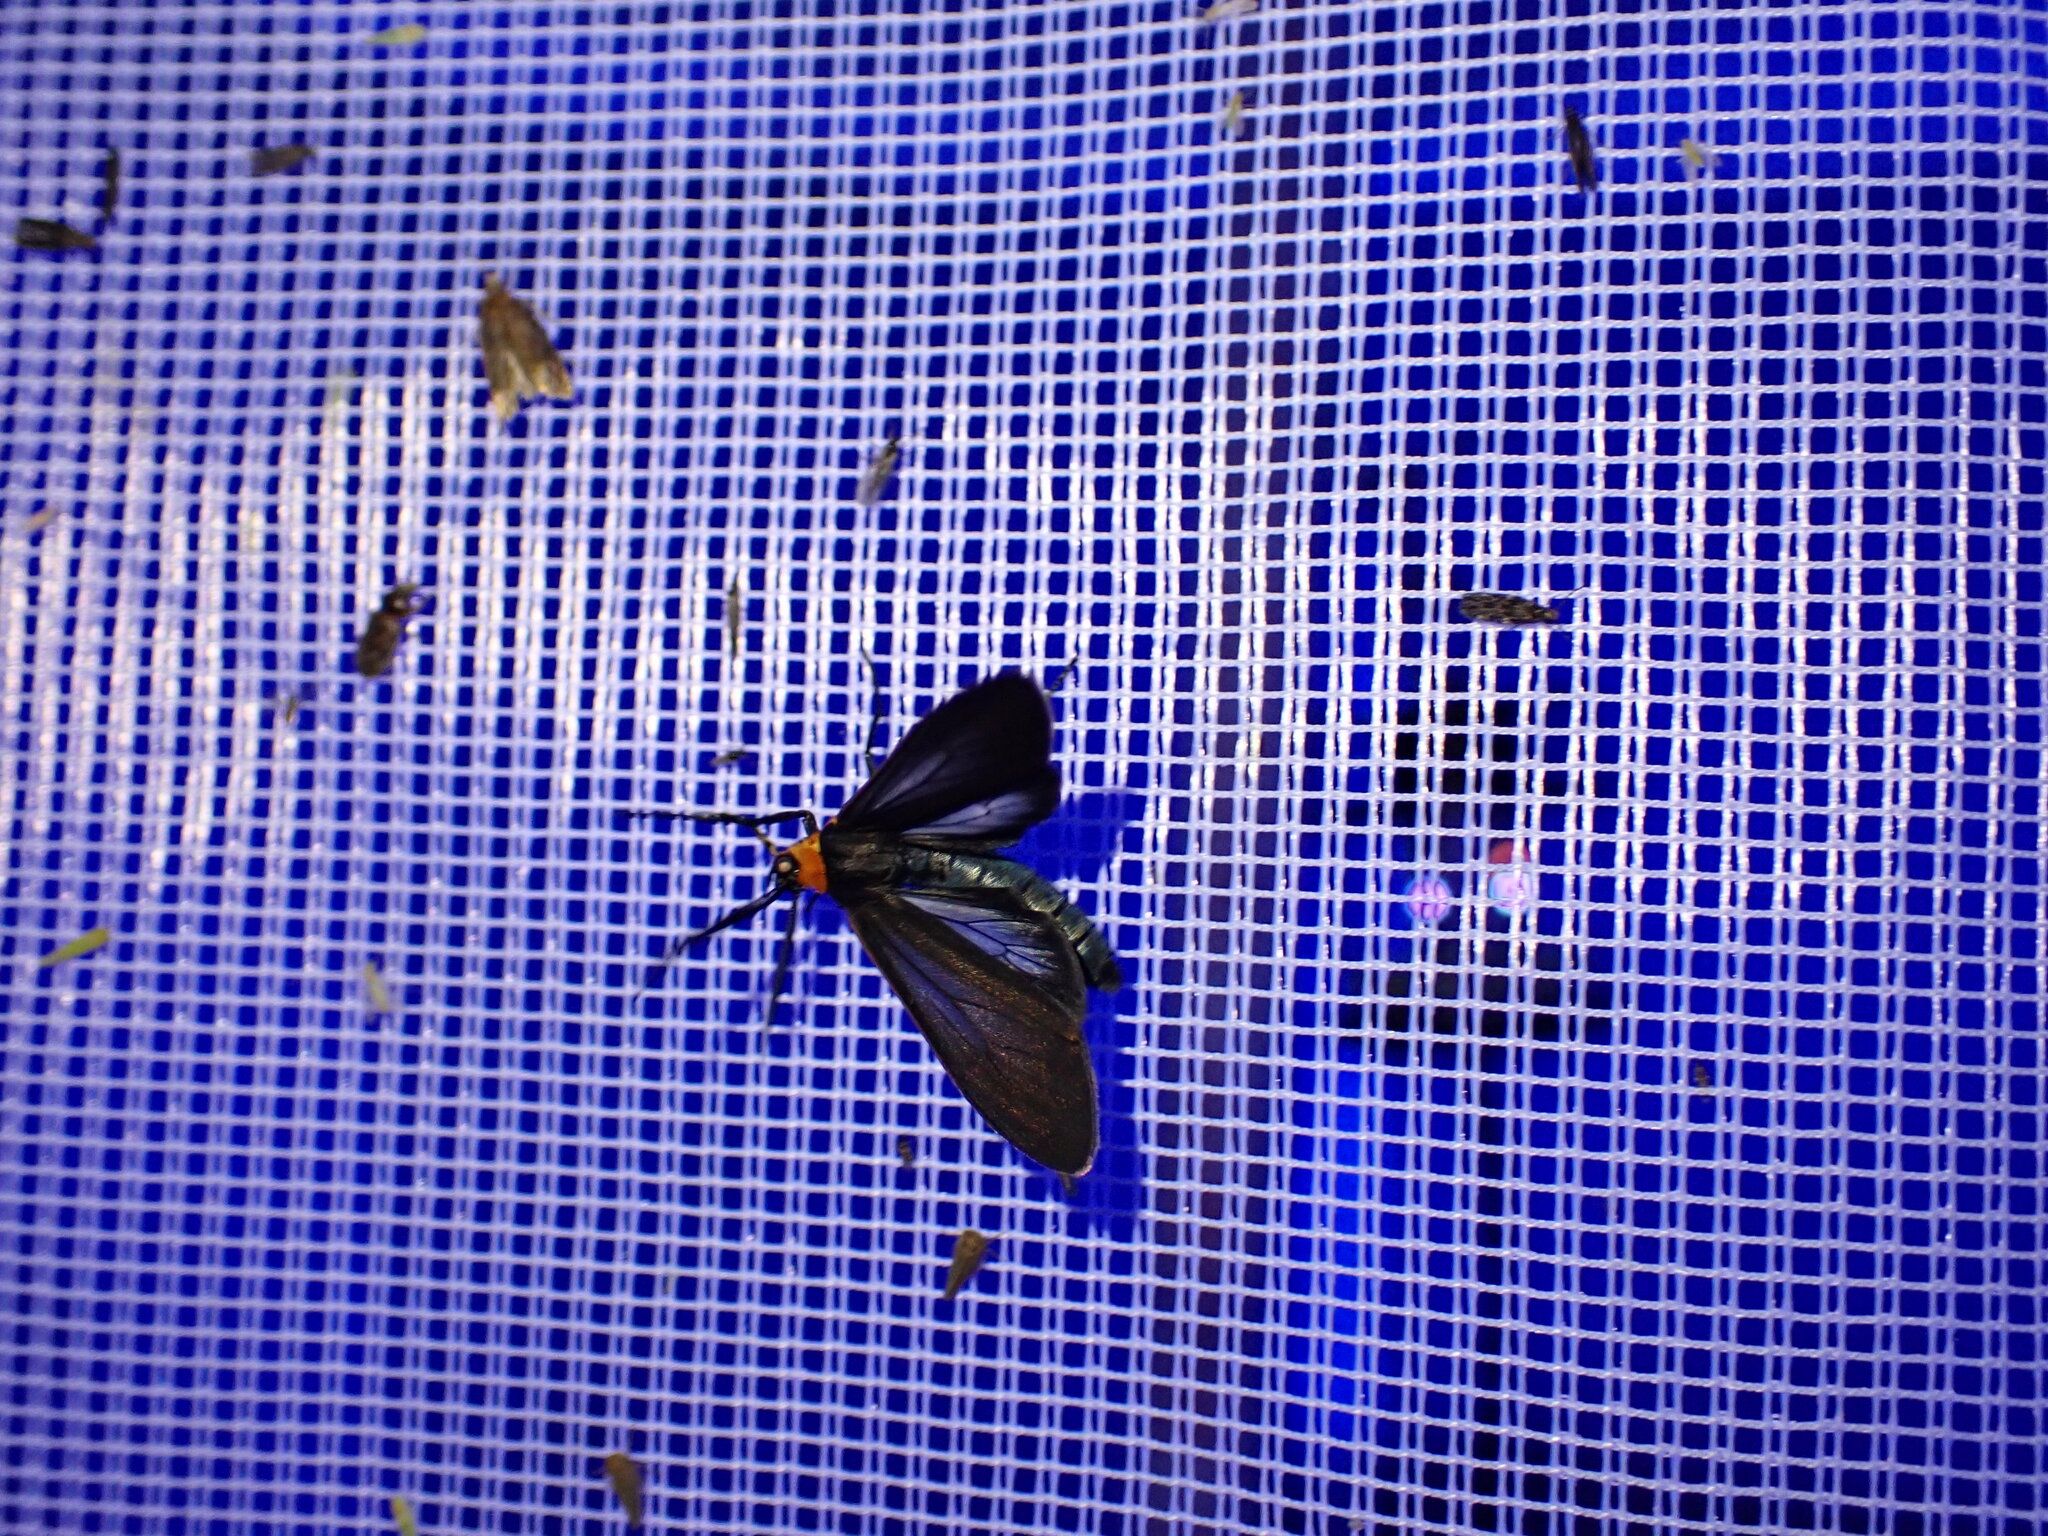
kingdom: Animalia
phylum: Arthropoda
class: Insecta
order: Lepidoptera
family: Erebidae
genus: Cisseps
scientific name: Cisseps fulvicollis
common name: Yellow-collared scape moth
